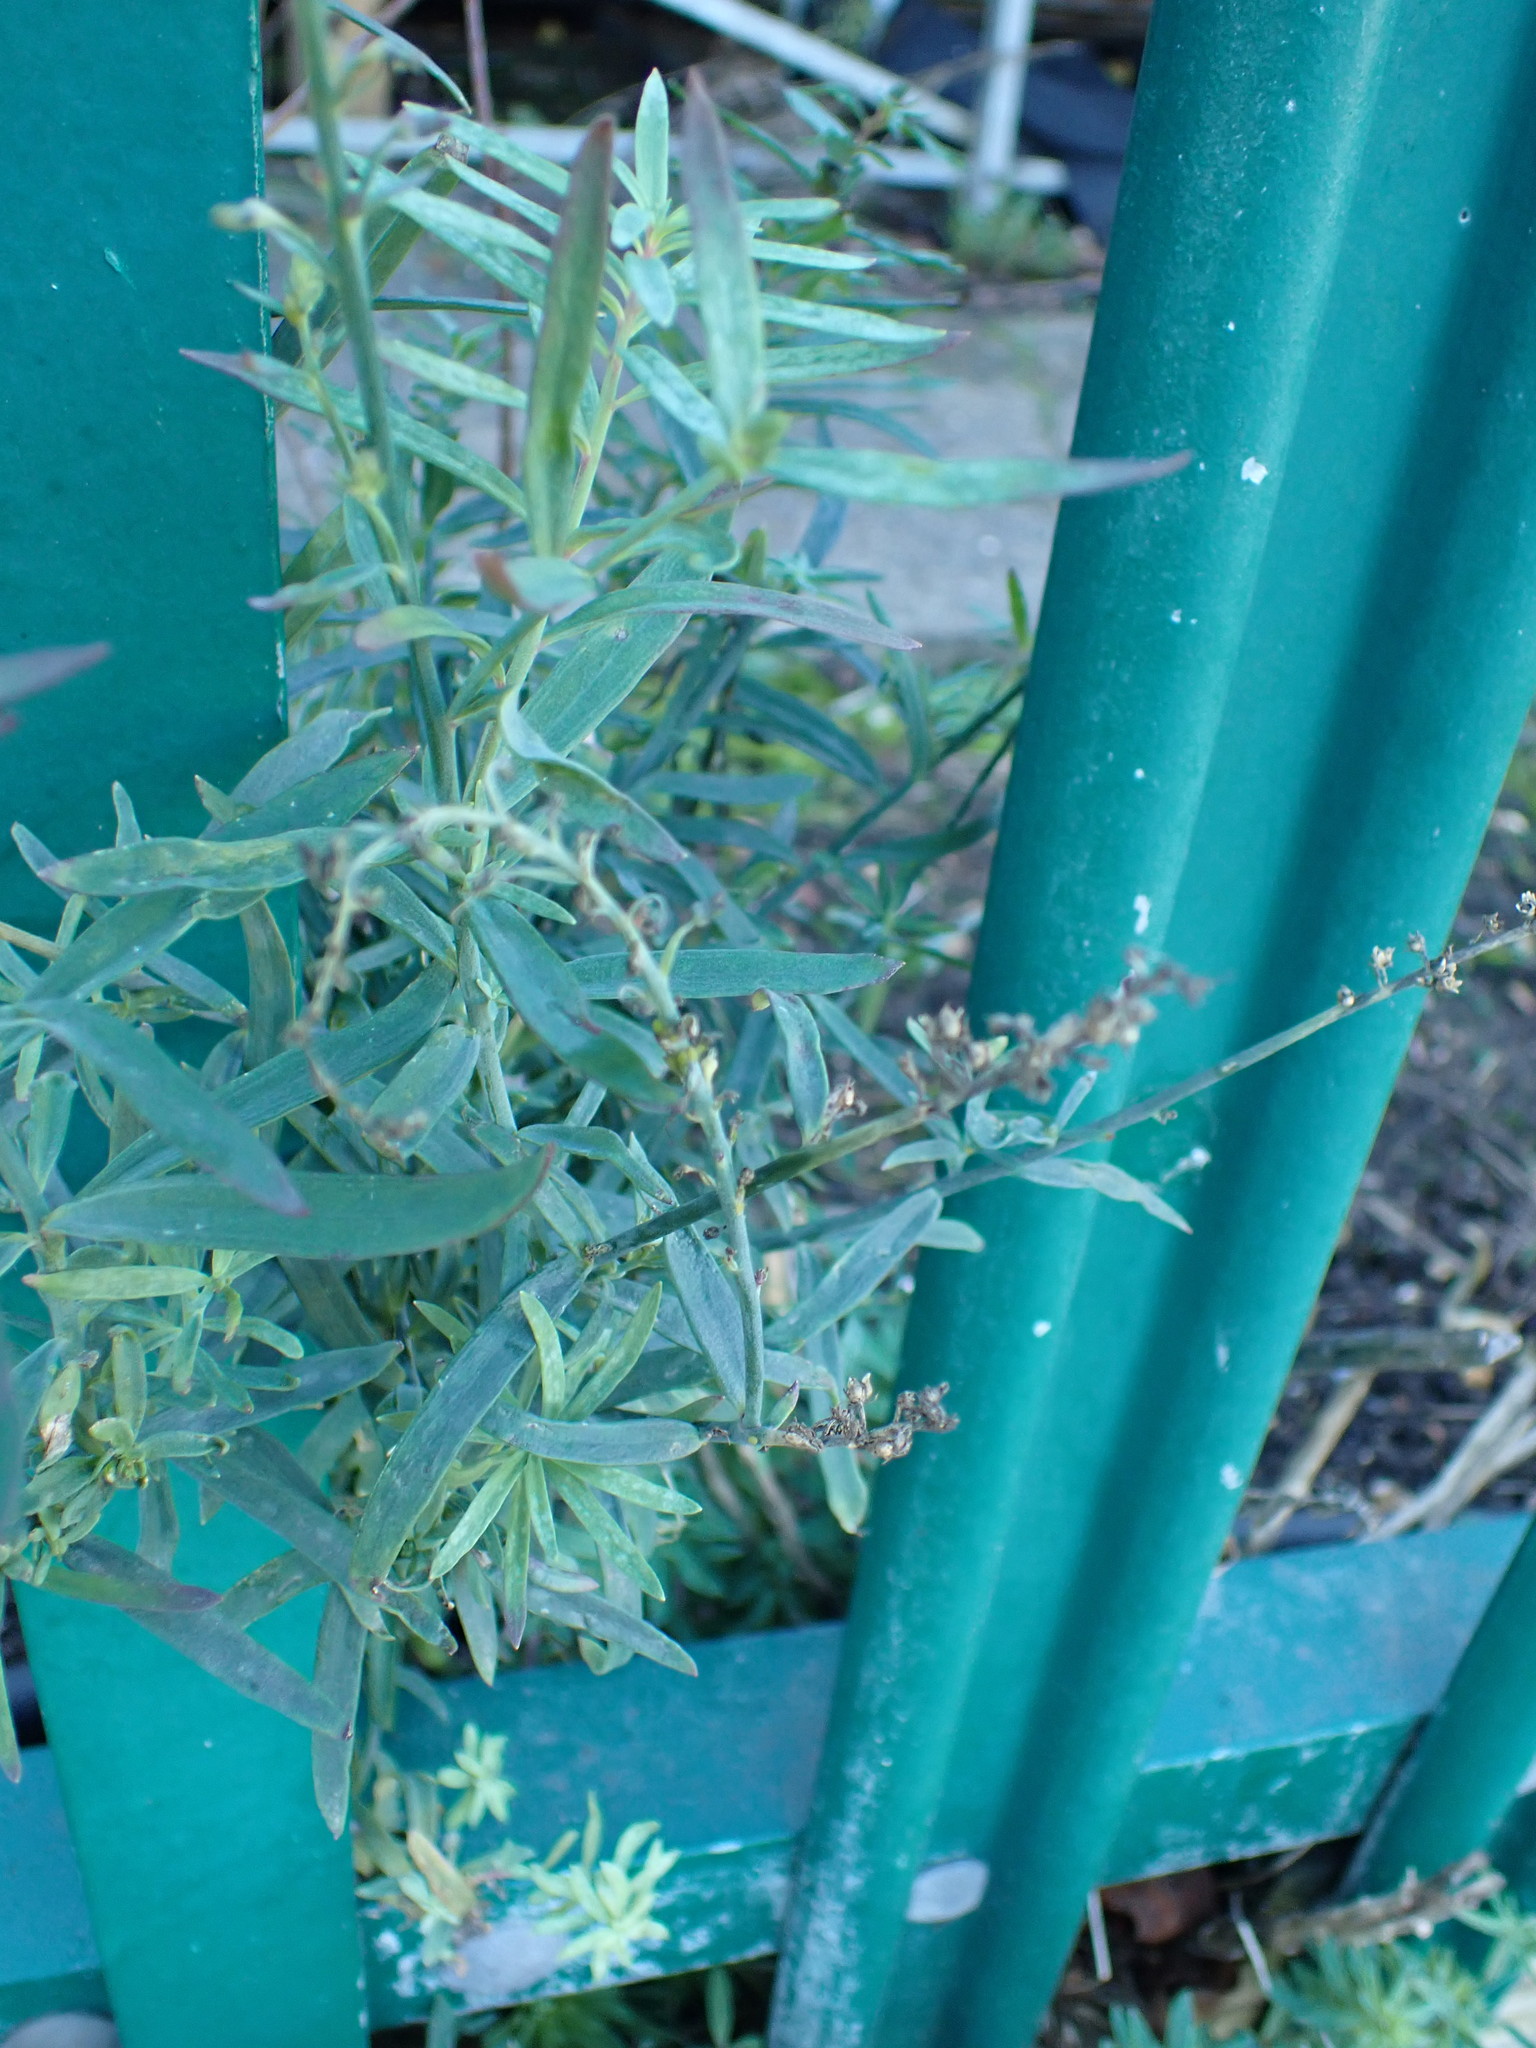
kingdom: Plantae
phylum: Tracheophyta
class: Magnoliopsida
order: Lamiales
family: Plantaginaceae
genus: Linaria
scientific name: Linaria purpurea
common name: Purple toadflax
